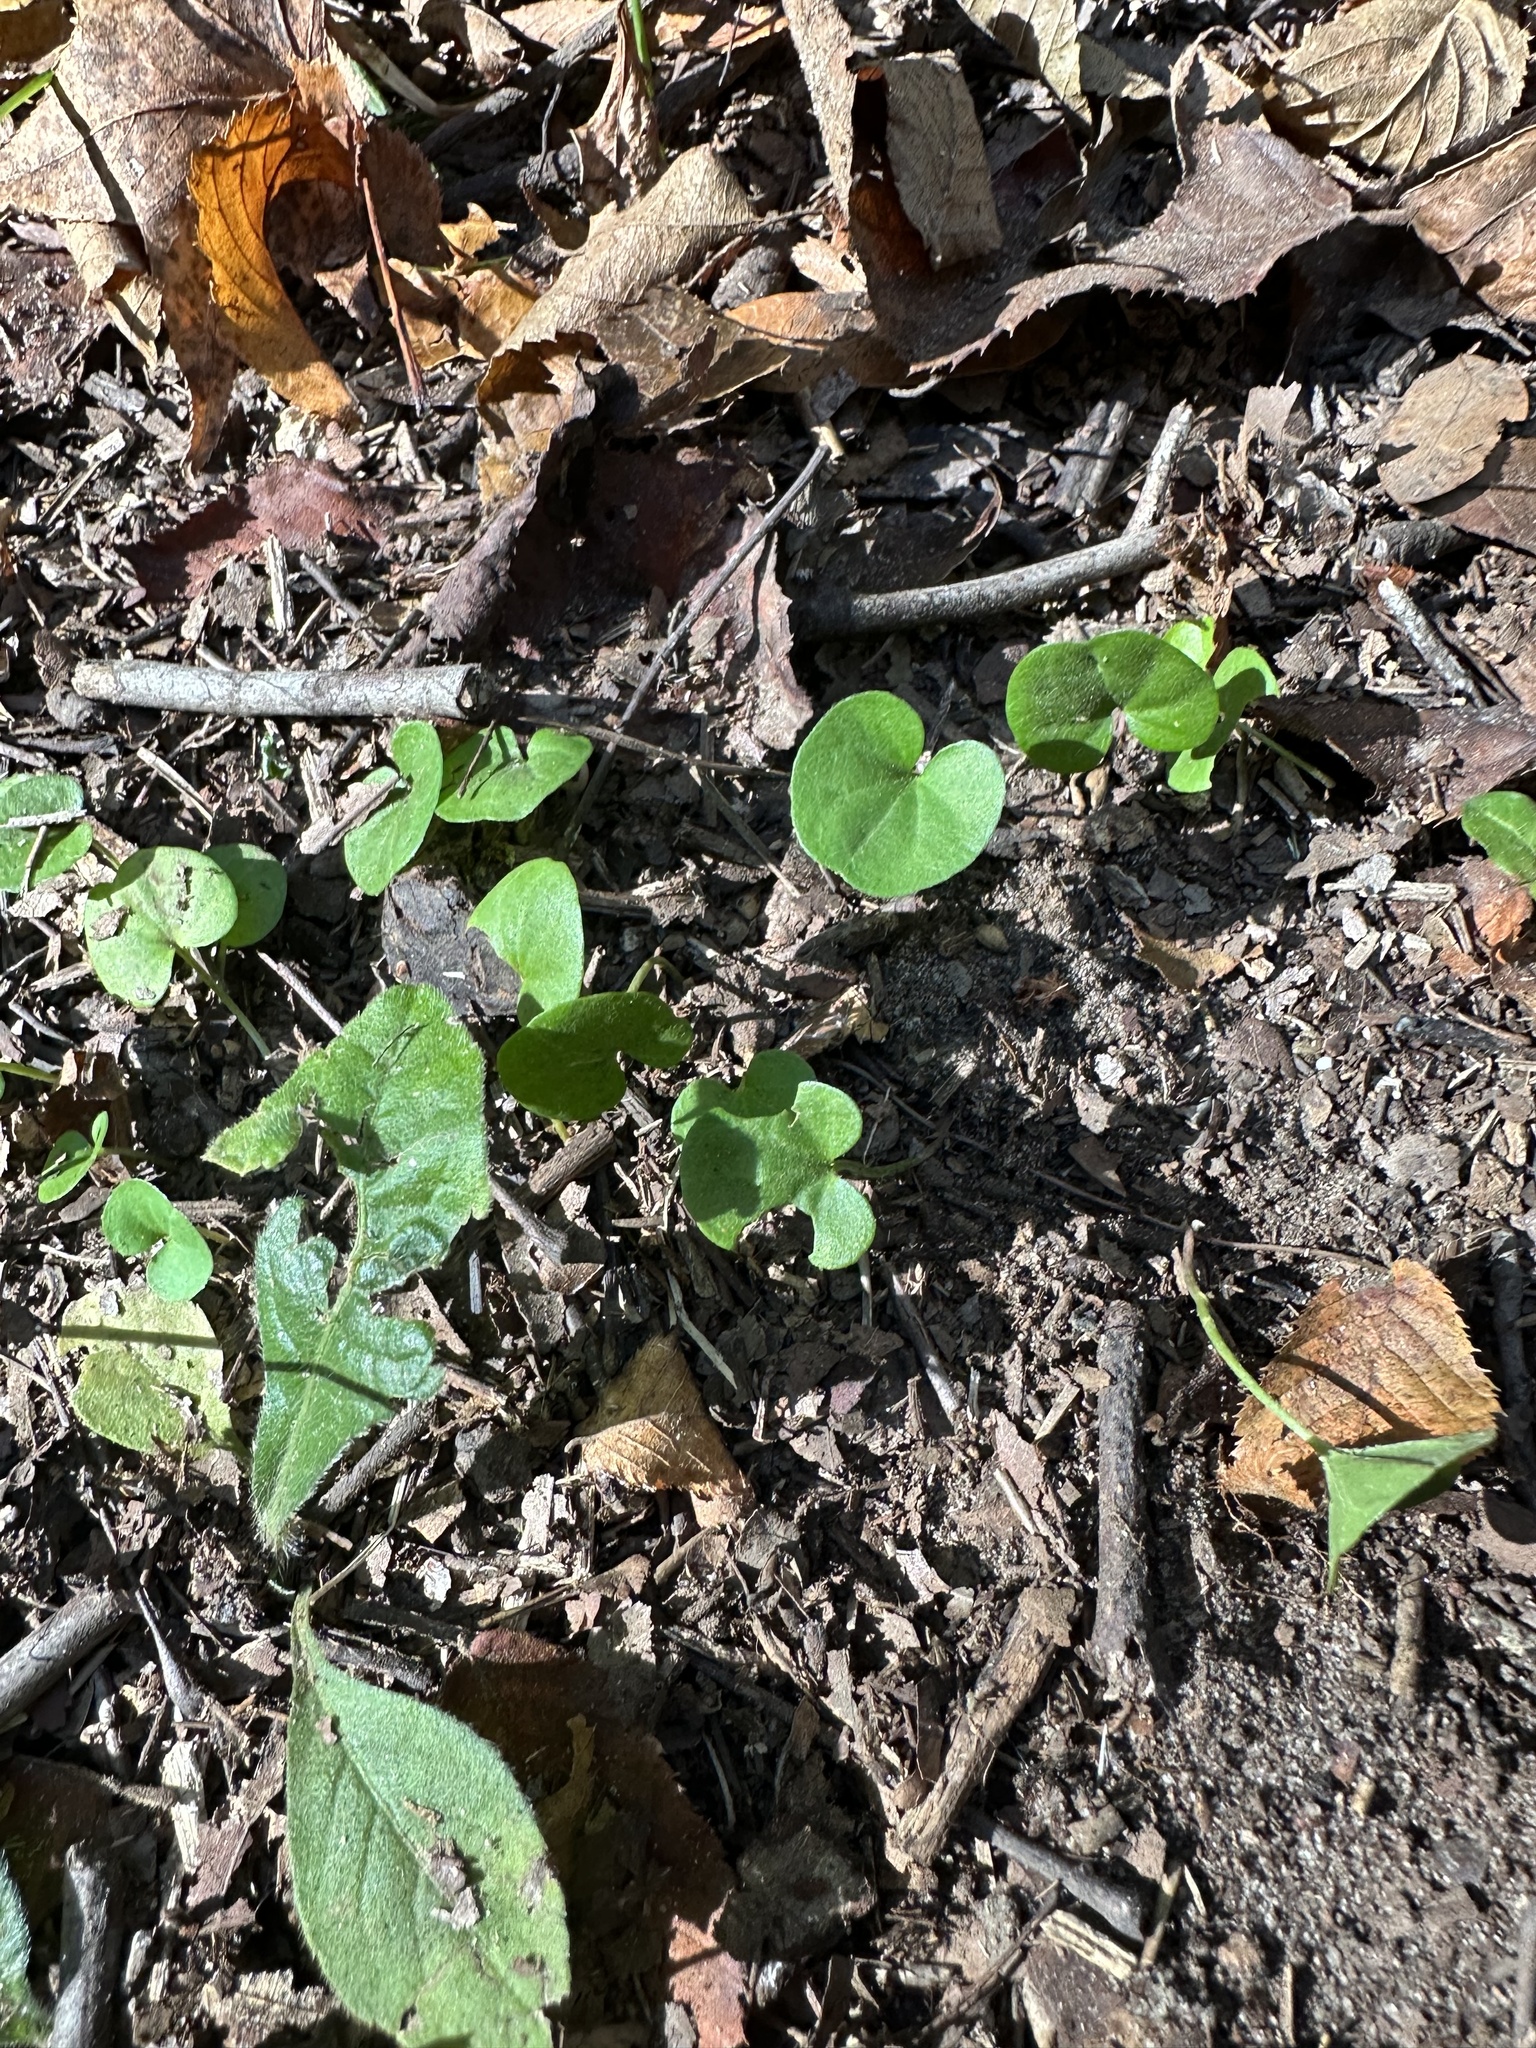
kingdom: Plantae
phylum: Tracheophyta
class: Magnoliopsida
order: Solanales
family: Convolvulaceae
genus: Dichondra
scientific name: Dichondra carolinensis
